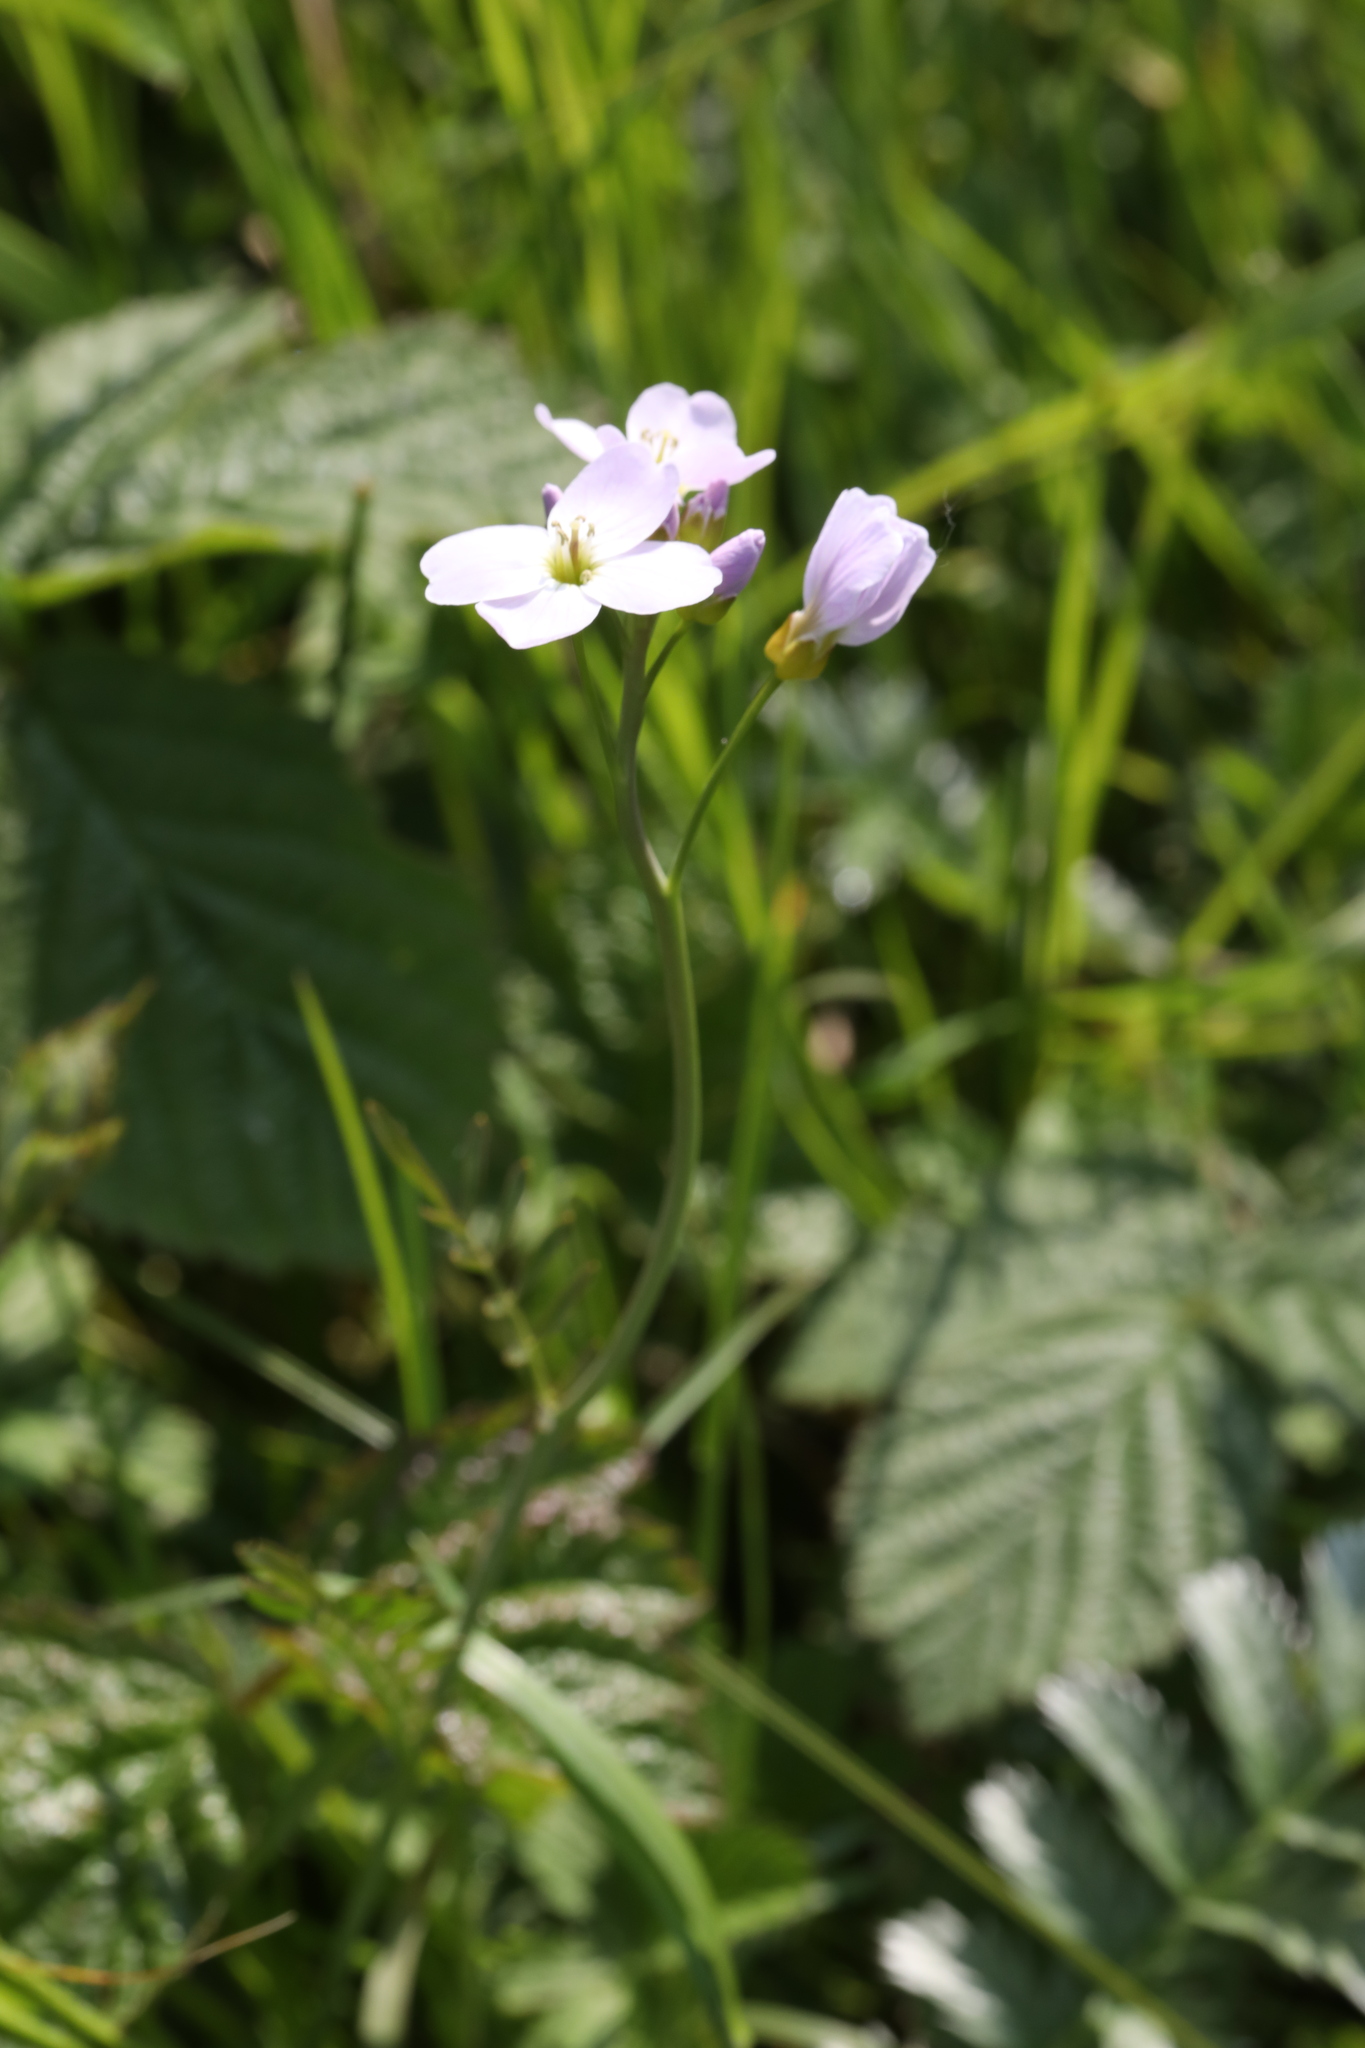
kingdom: Plantae
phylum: Tracheophyta
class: Magnoliopsida
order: Brassicales
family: Brassicaceae
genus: Cardamine
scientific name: Cardamine pratensis
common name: Cuckoo flower
